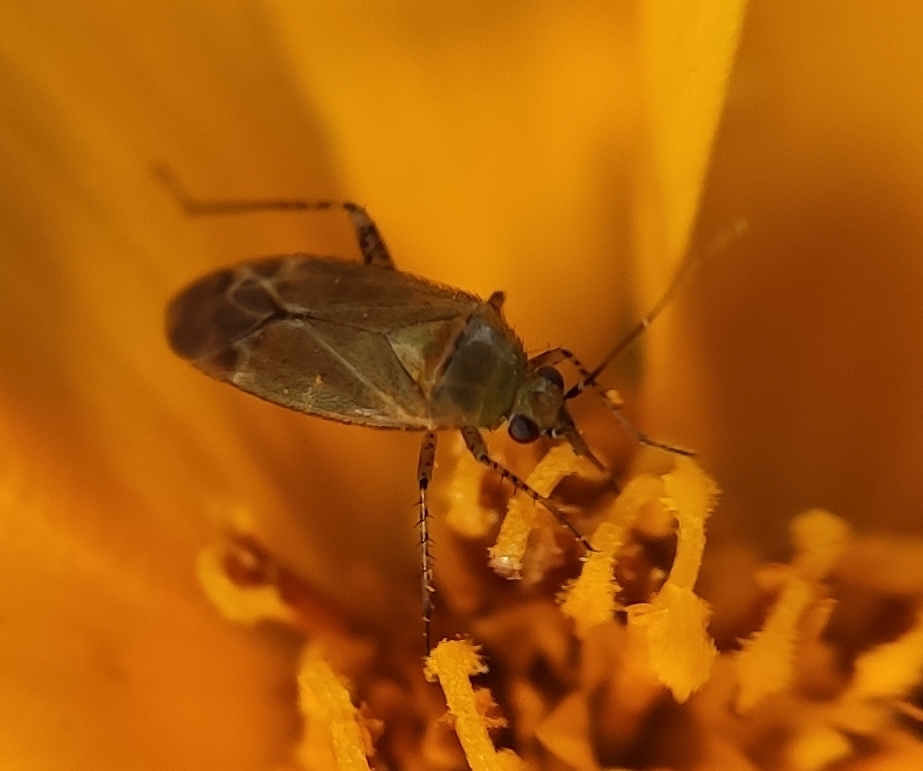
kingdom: Animalia
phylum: Arthropoda
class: Insecta
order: Hemiptera
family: Miridae
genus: Plagiognathus
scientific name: Plagiognathus fulvipennis
